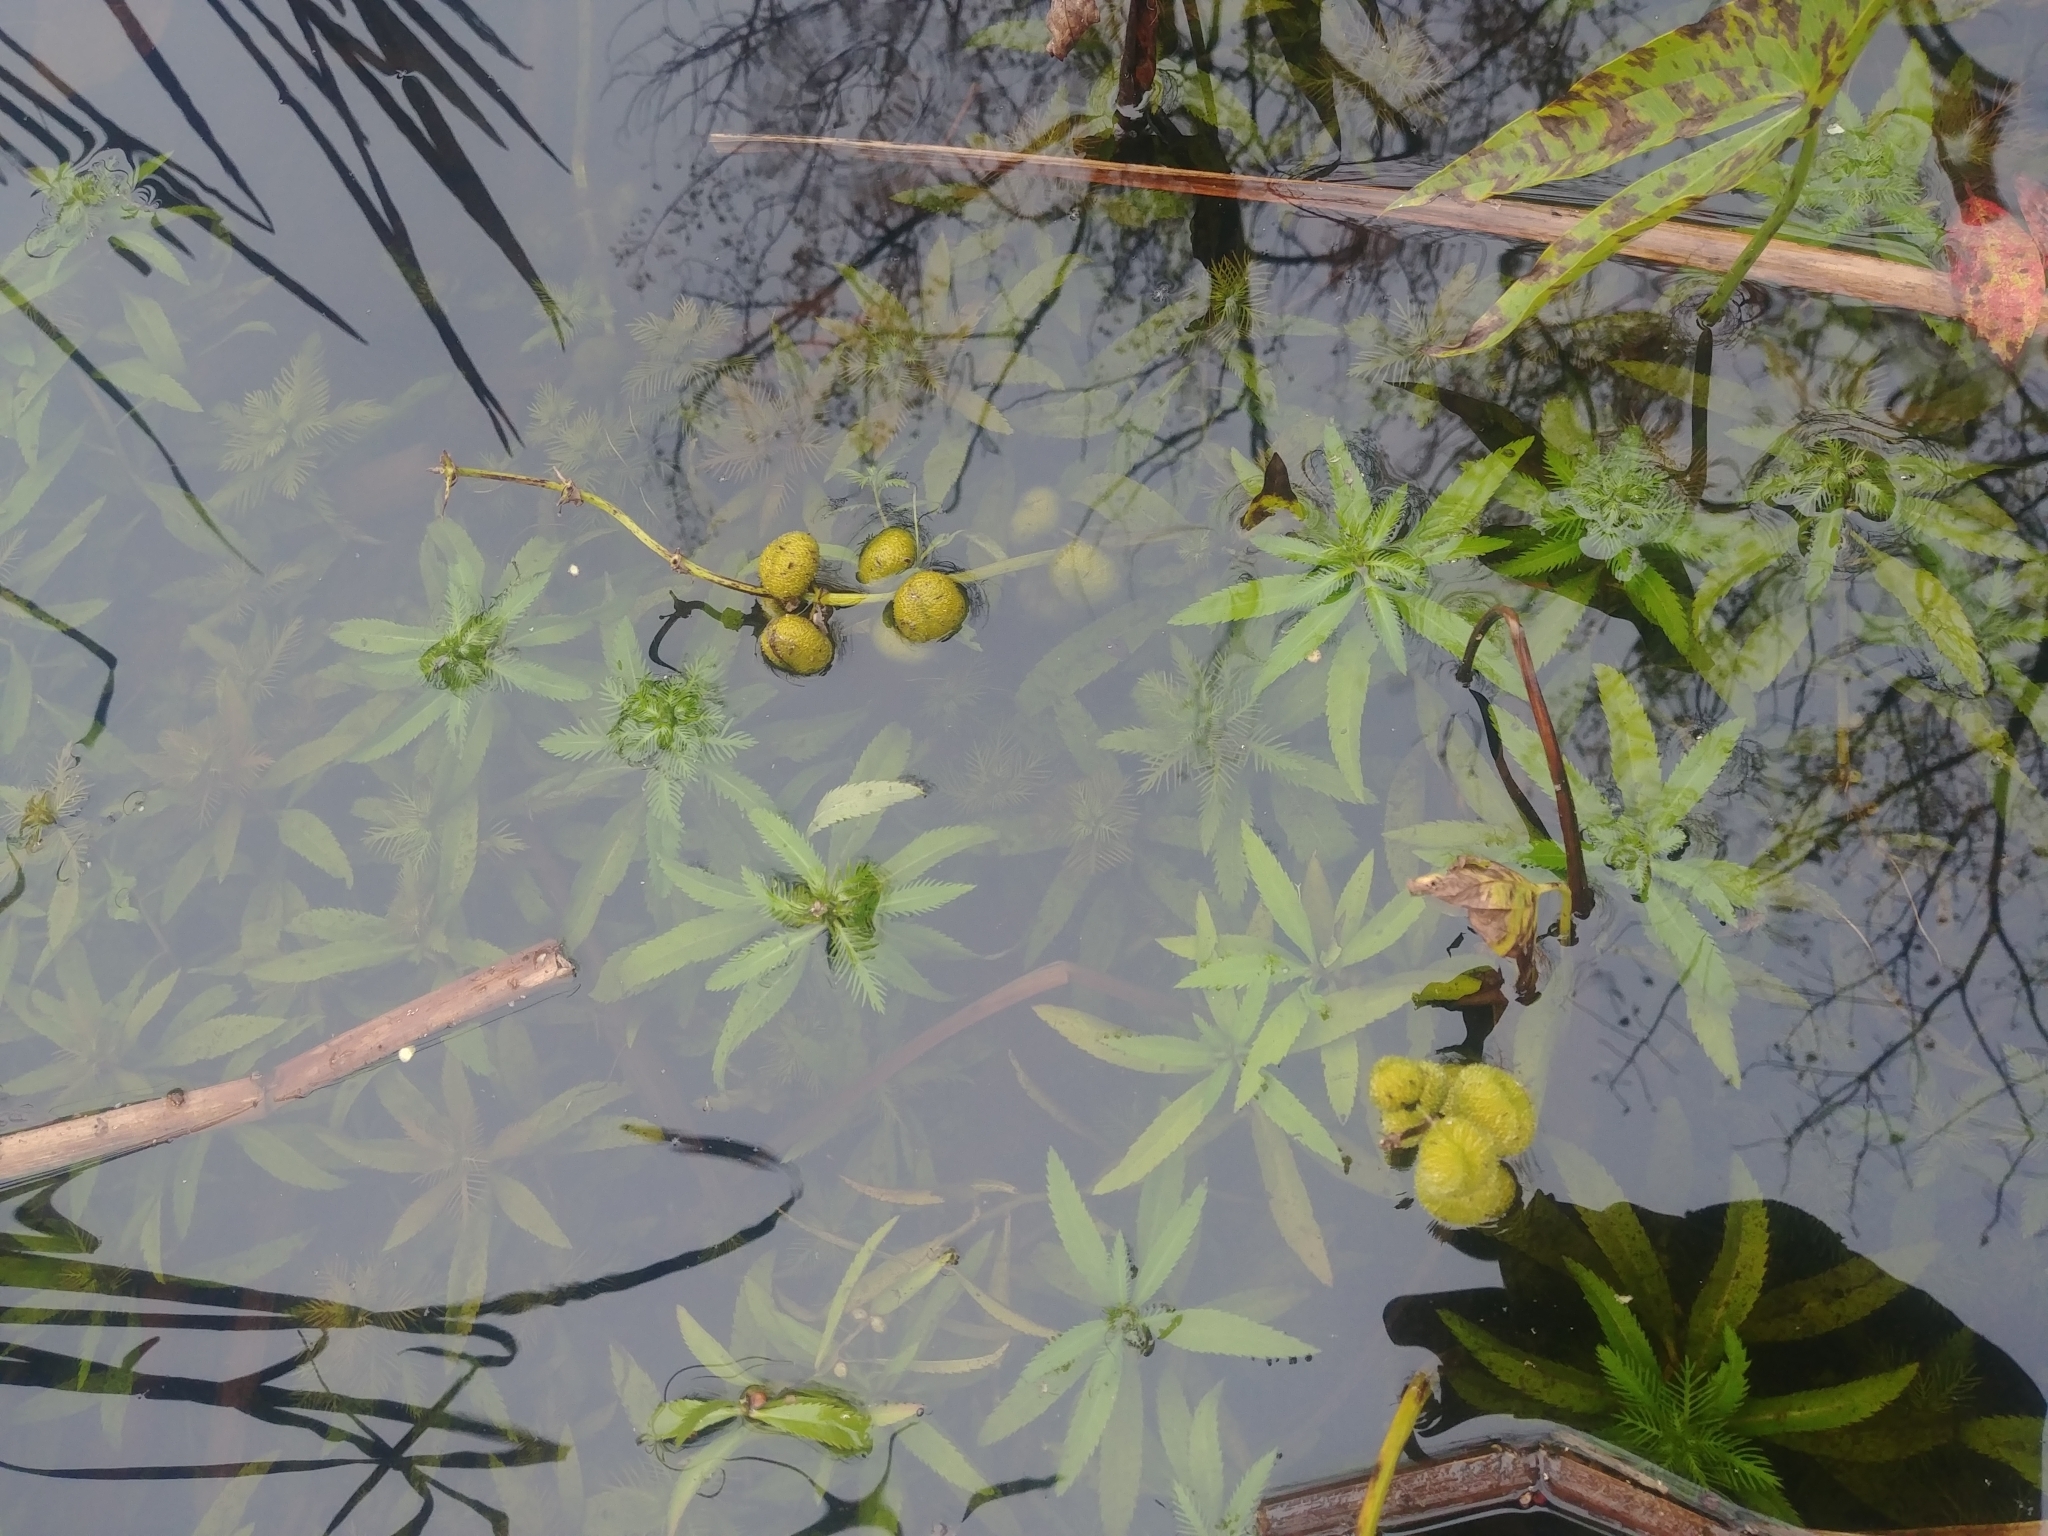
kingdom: Plantae
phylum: Tracheophyta
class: Magnoliopsida
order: Saxifragales
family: Haloragaceae
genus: Proserpinaca
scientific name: Proserpinaca palustris
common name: Marsh mermaidweed
